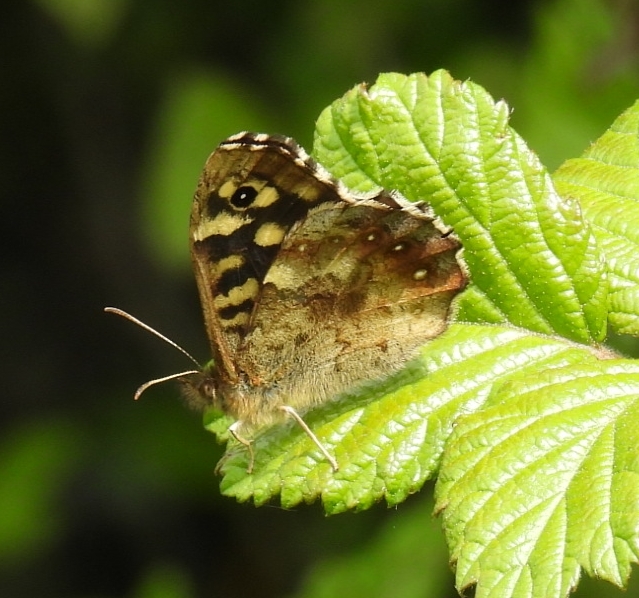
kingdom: Animalia
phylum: Arthropoda
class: Insecta
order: Lepidoptera
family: Nymphalidae
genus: Pararge
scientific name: Pararge aegeria
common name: Speckled wood
